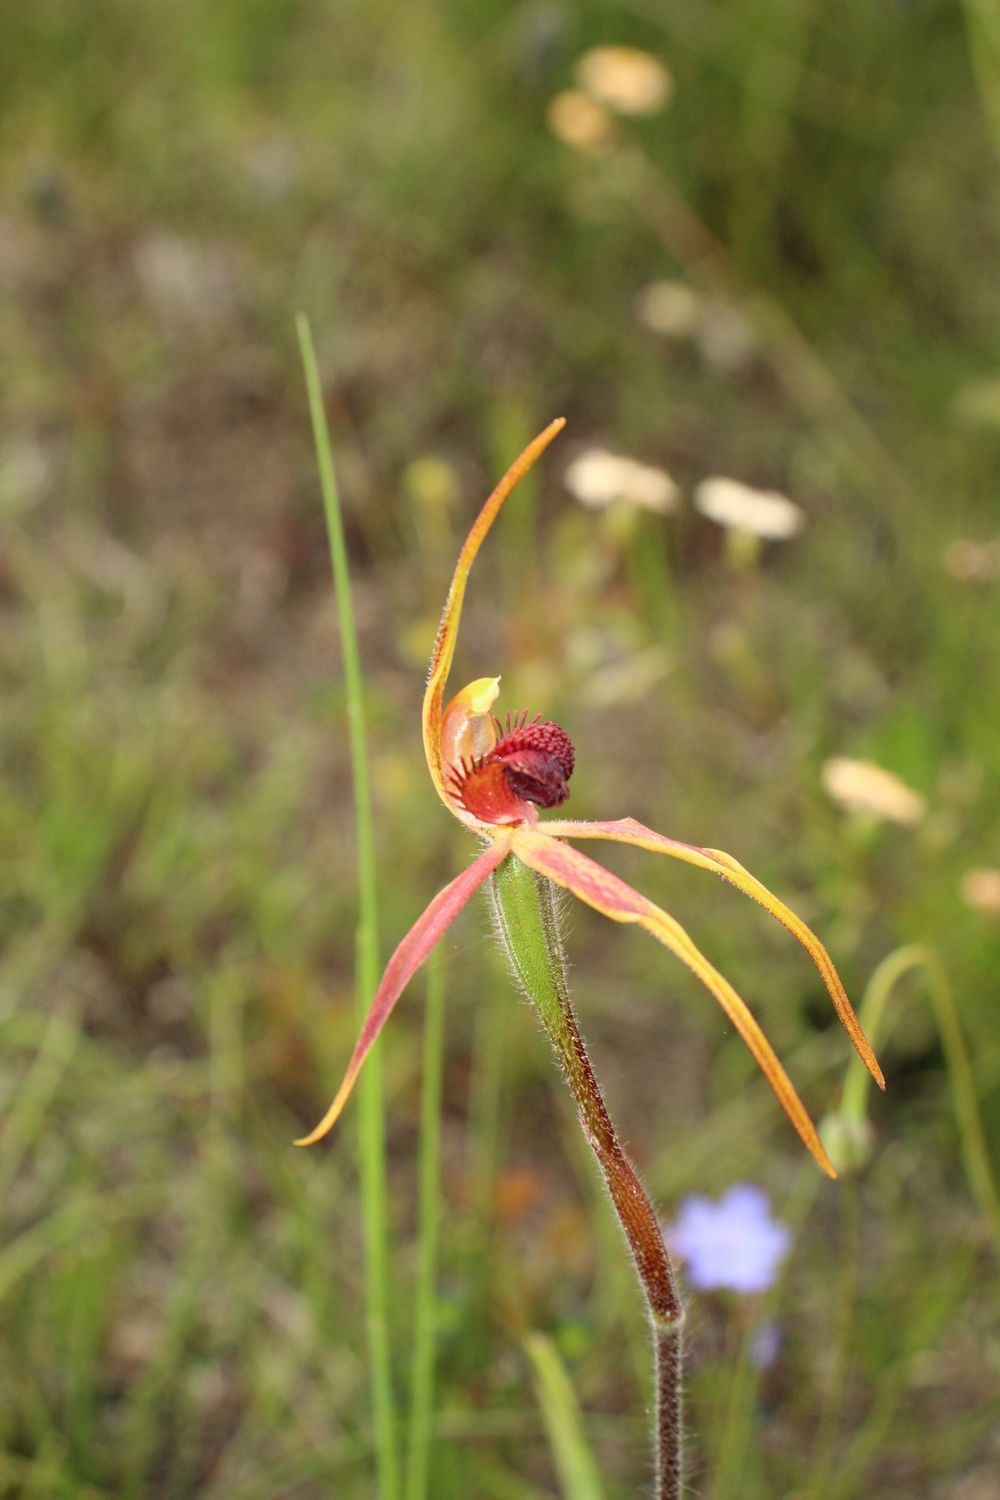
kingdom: Plantae
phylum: Tracheophyta
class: Liliopsida
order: Asparagales
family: Orchidaceae
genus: Caladenia
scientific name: Caladenia longiclavata
